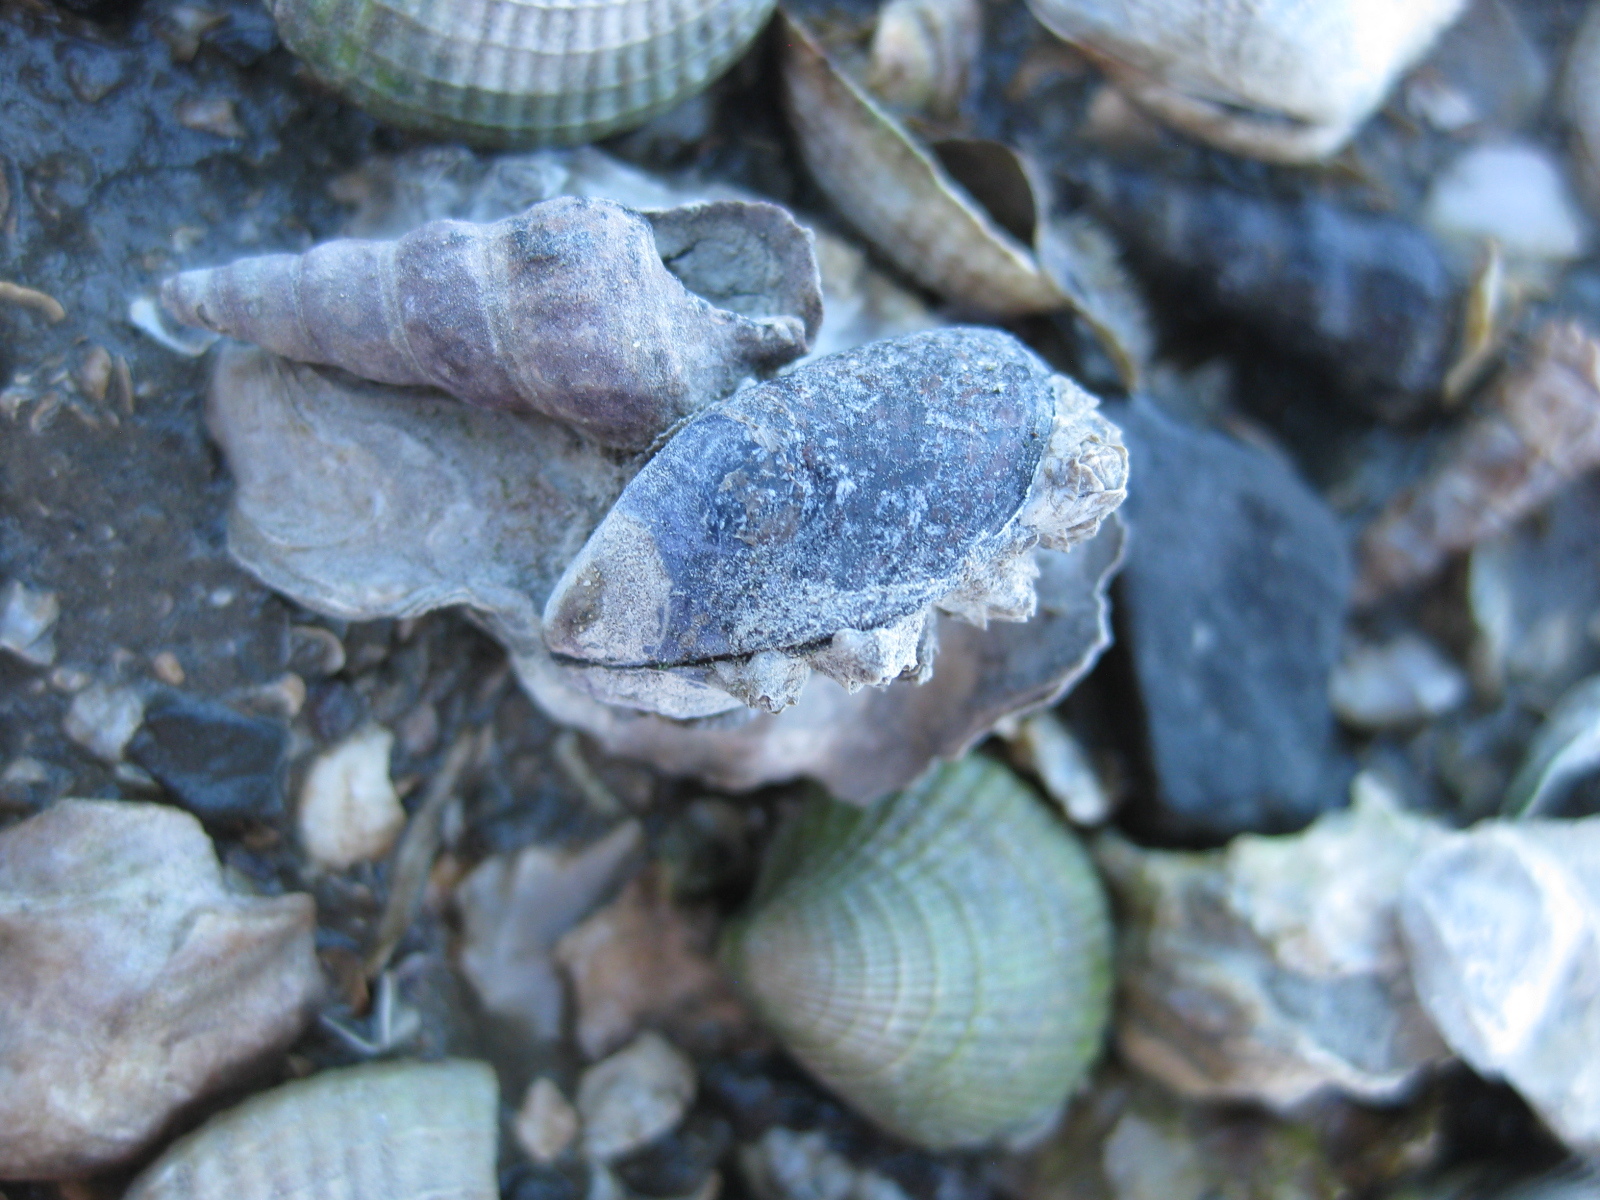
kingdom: Animalia
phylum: Mollusca
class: Bivalvia
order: Mytilida
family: Mytilidae
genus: Xenostrobus
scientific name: Xenostrobus neozelanicus
